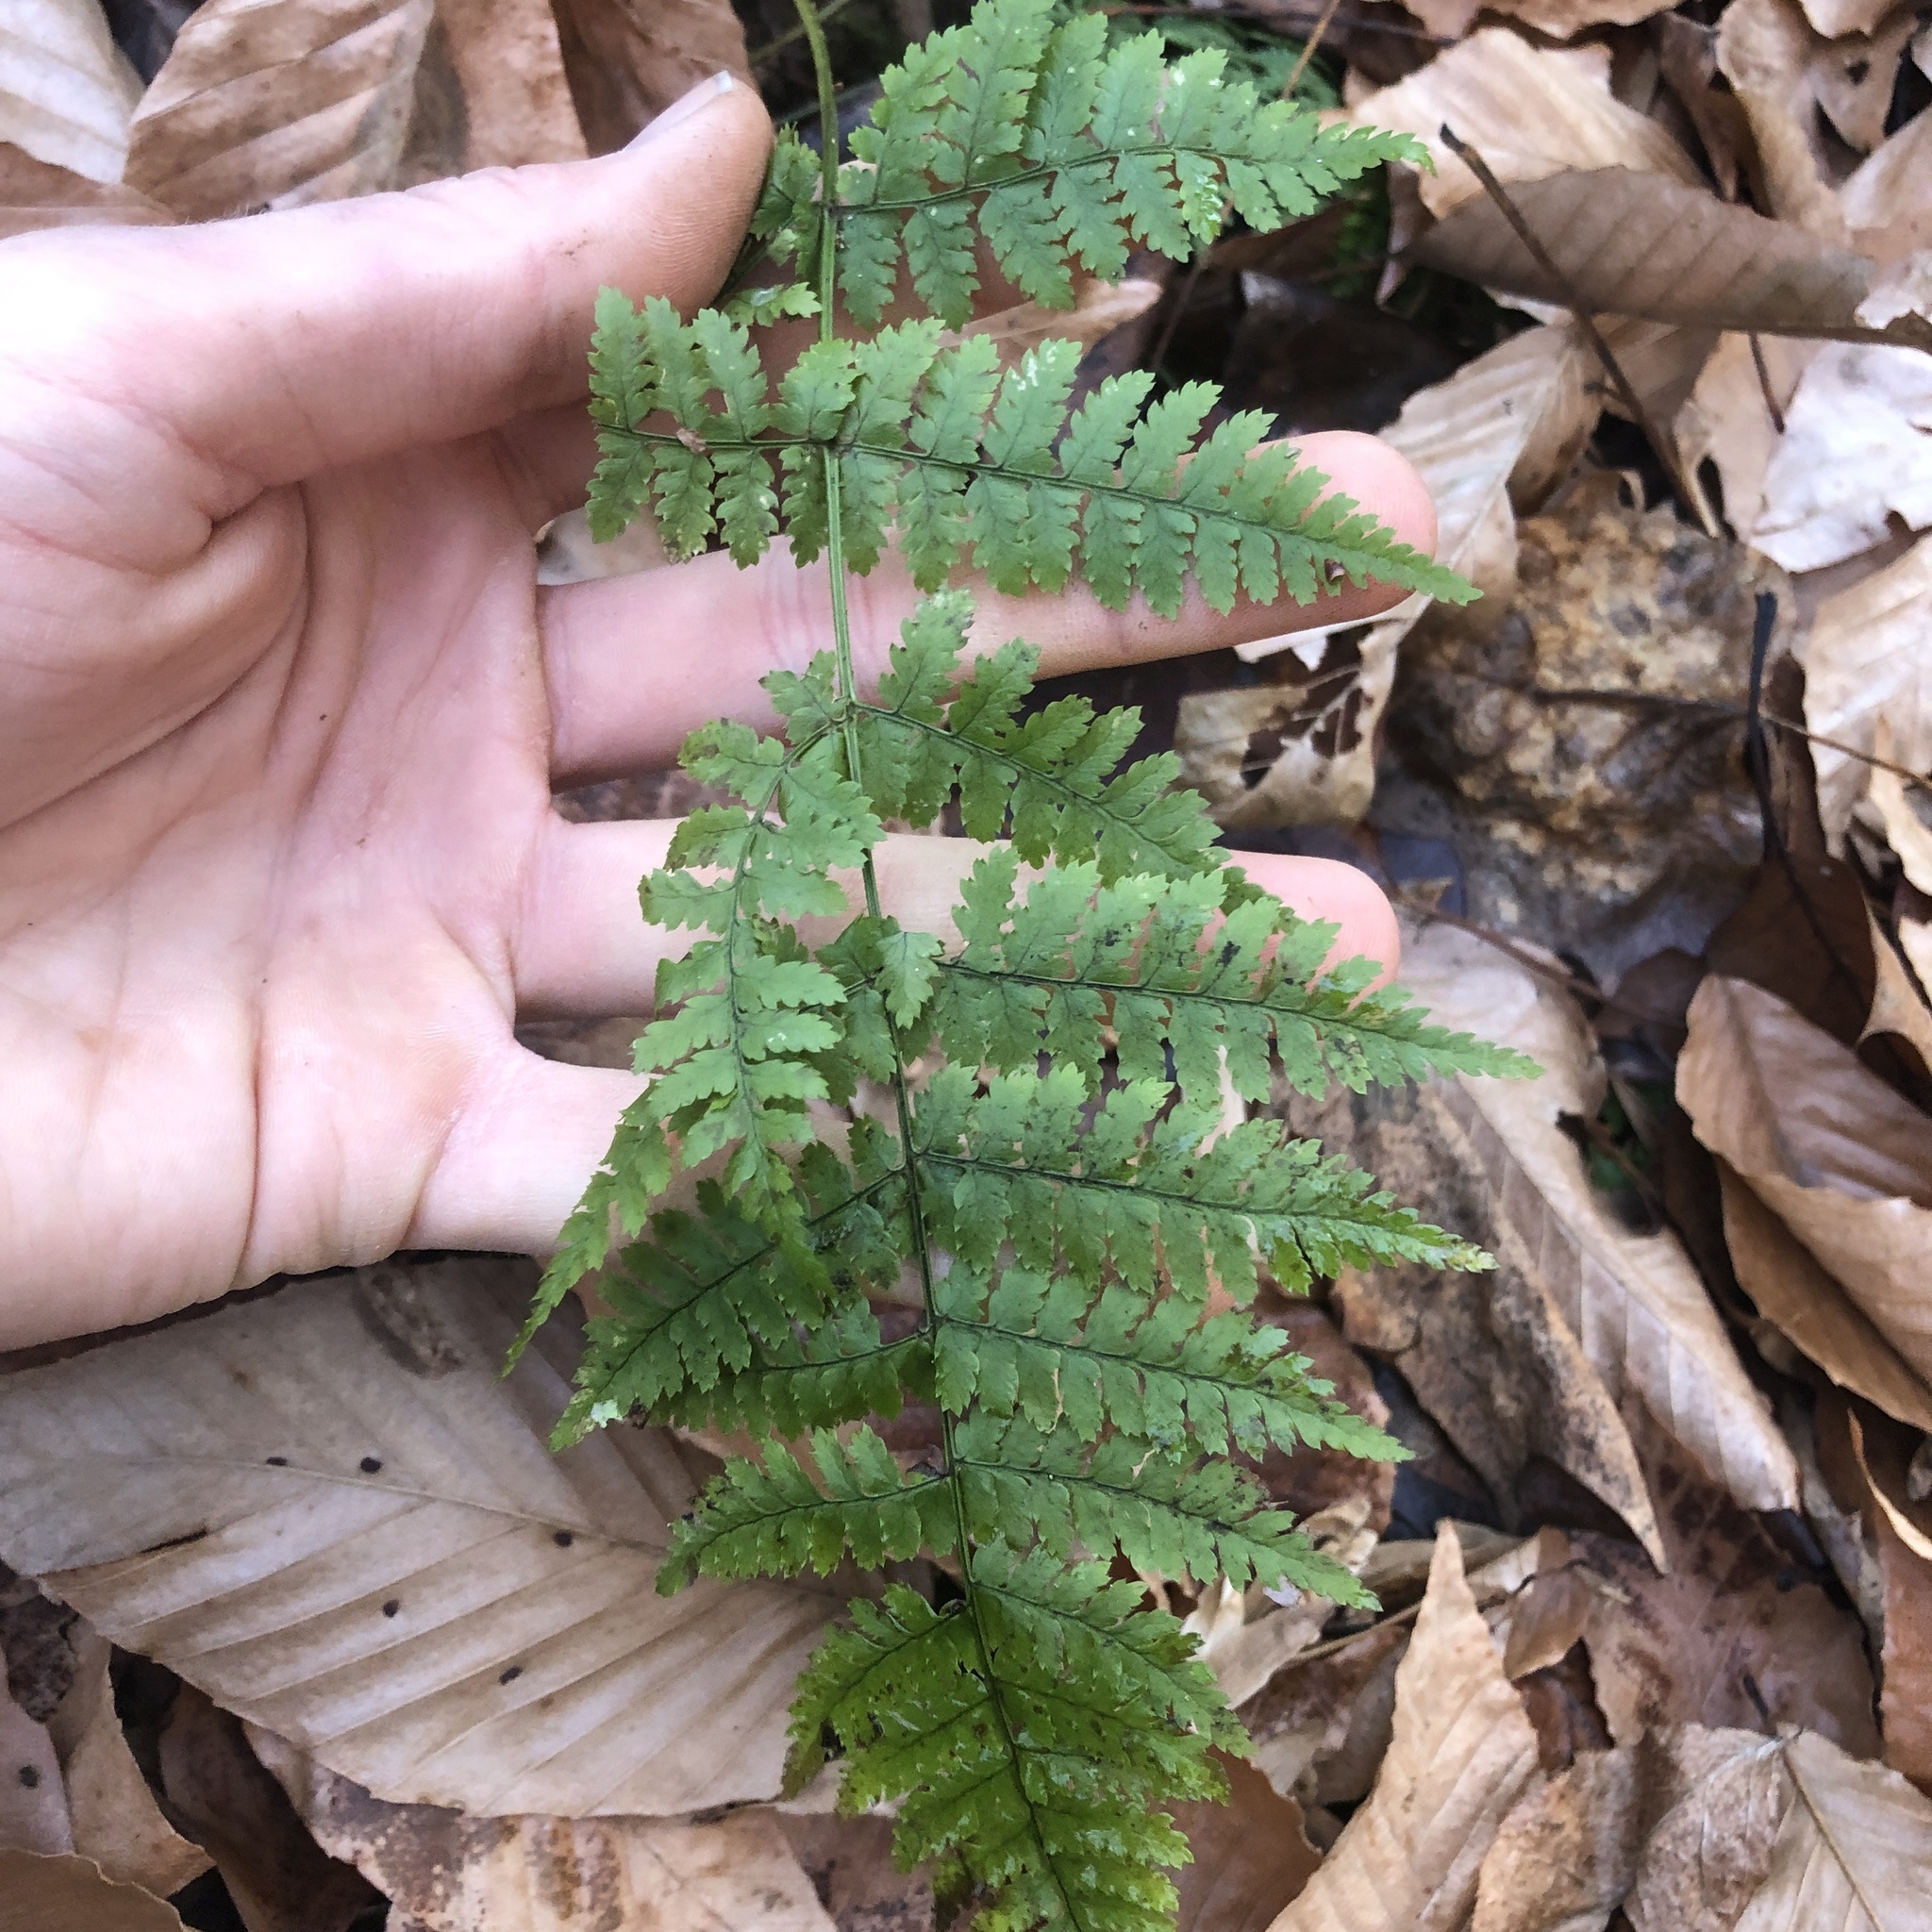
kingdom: Plantae
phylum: Tracheophyta
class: Polypodiopsida
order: Polypodiales
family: Dryopteridaceae
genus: Dryopteris
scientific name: Dryopteris intermedia
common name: Evergreen wood fern
